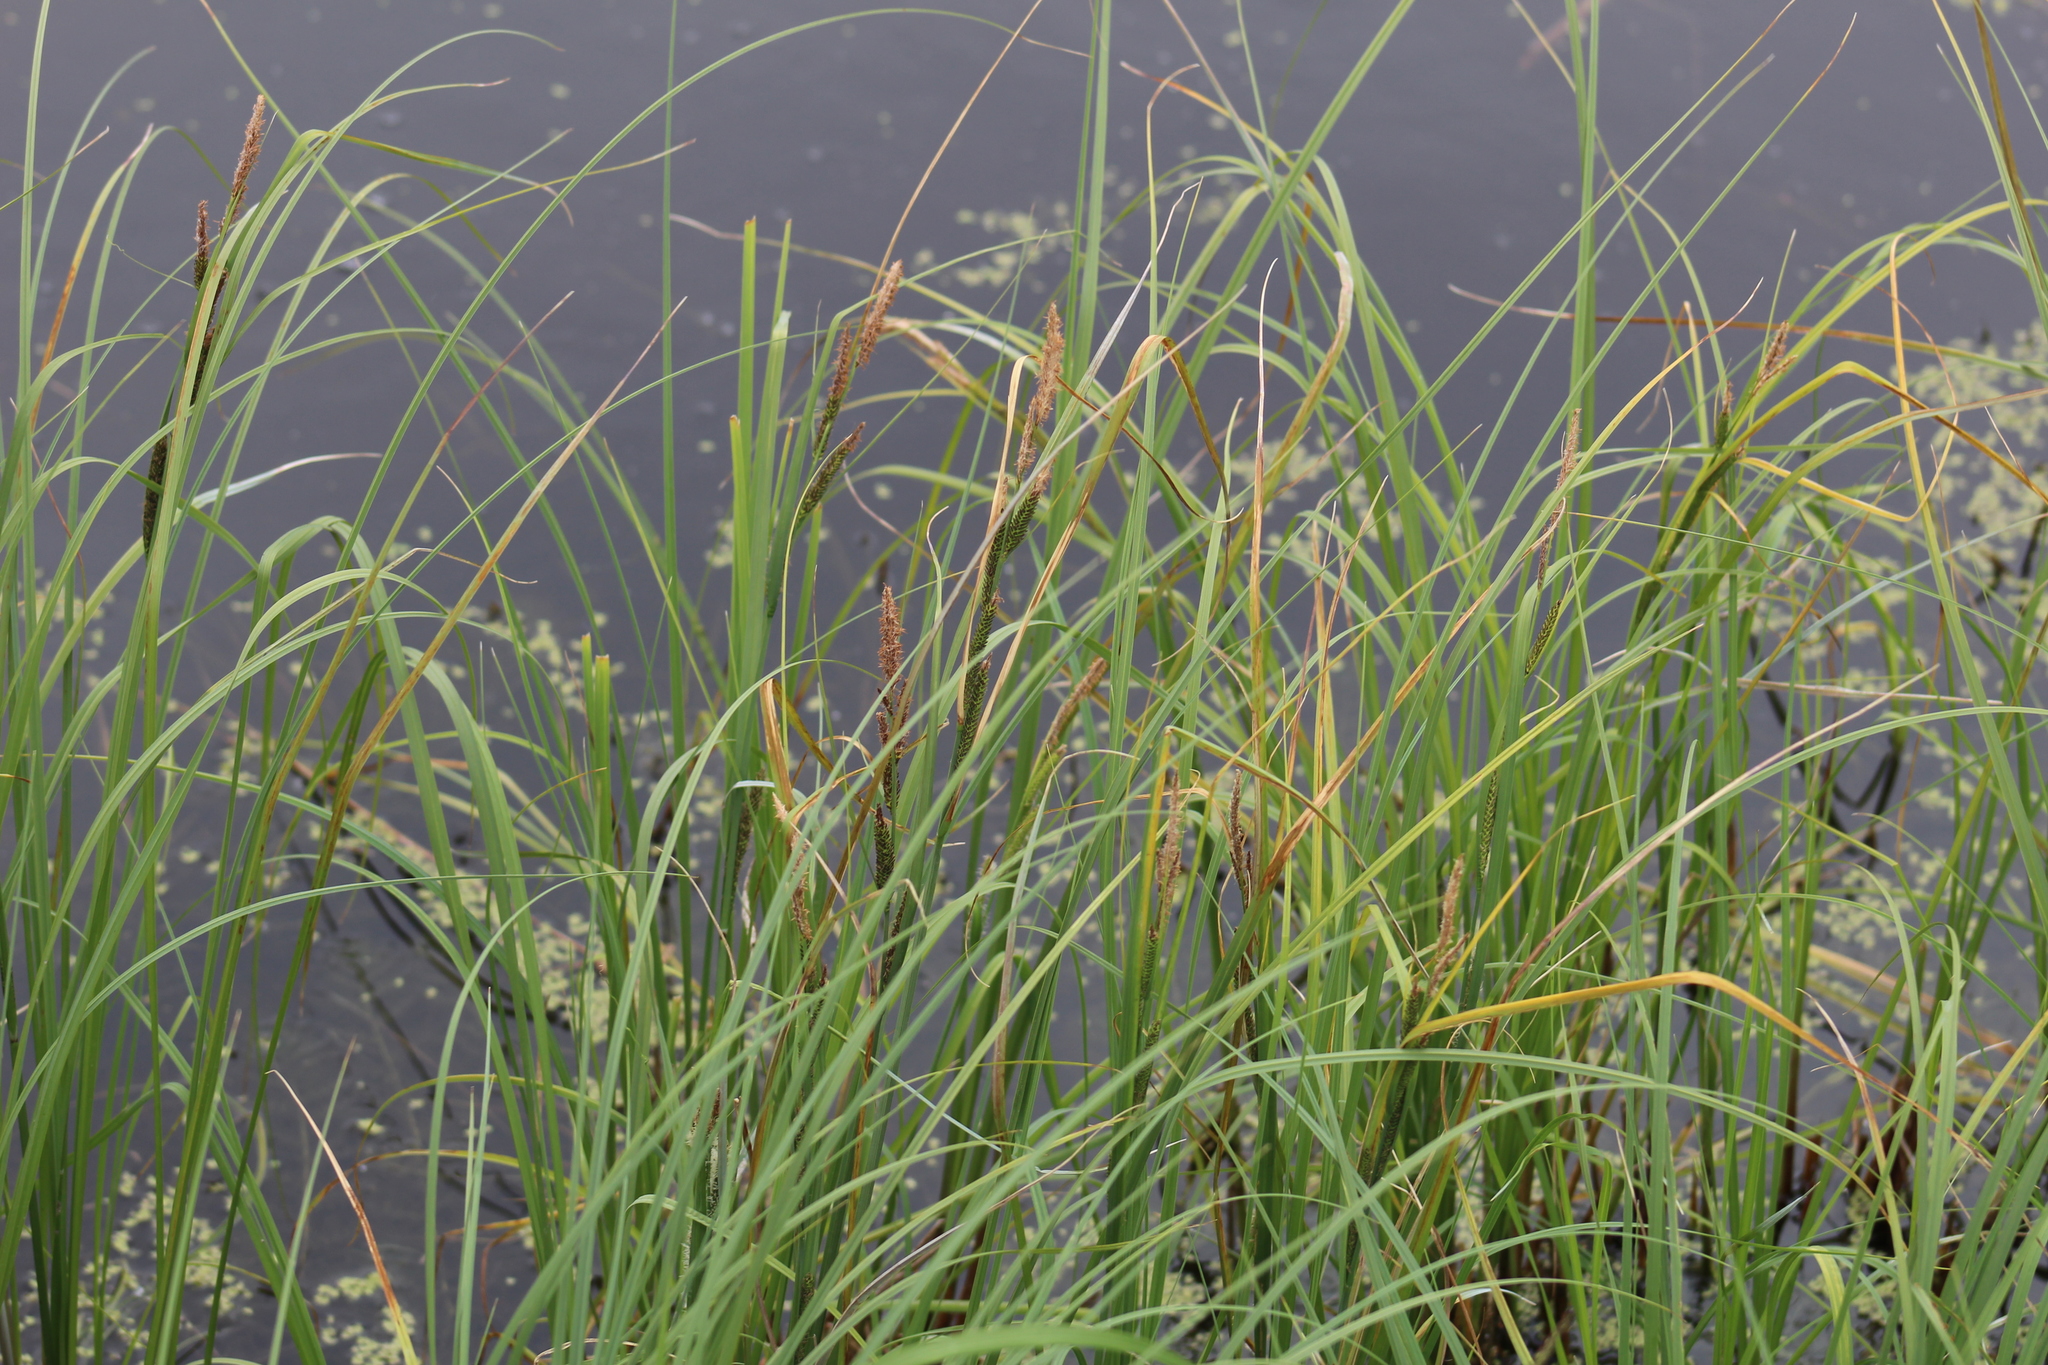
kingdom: Plantae
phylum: Tracheophyta
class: Liliopsida
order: Poales
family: Cyperaceae
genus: Carex
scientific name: Carex aquatilis
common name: Water sedge
